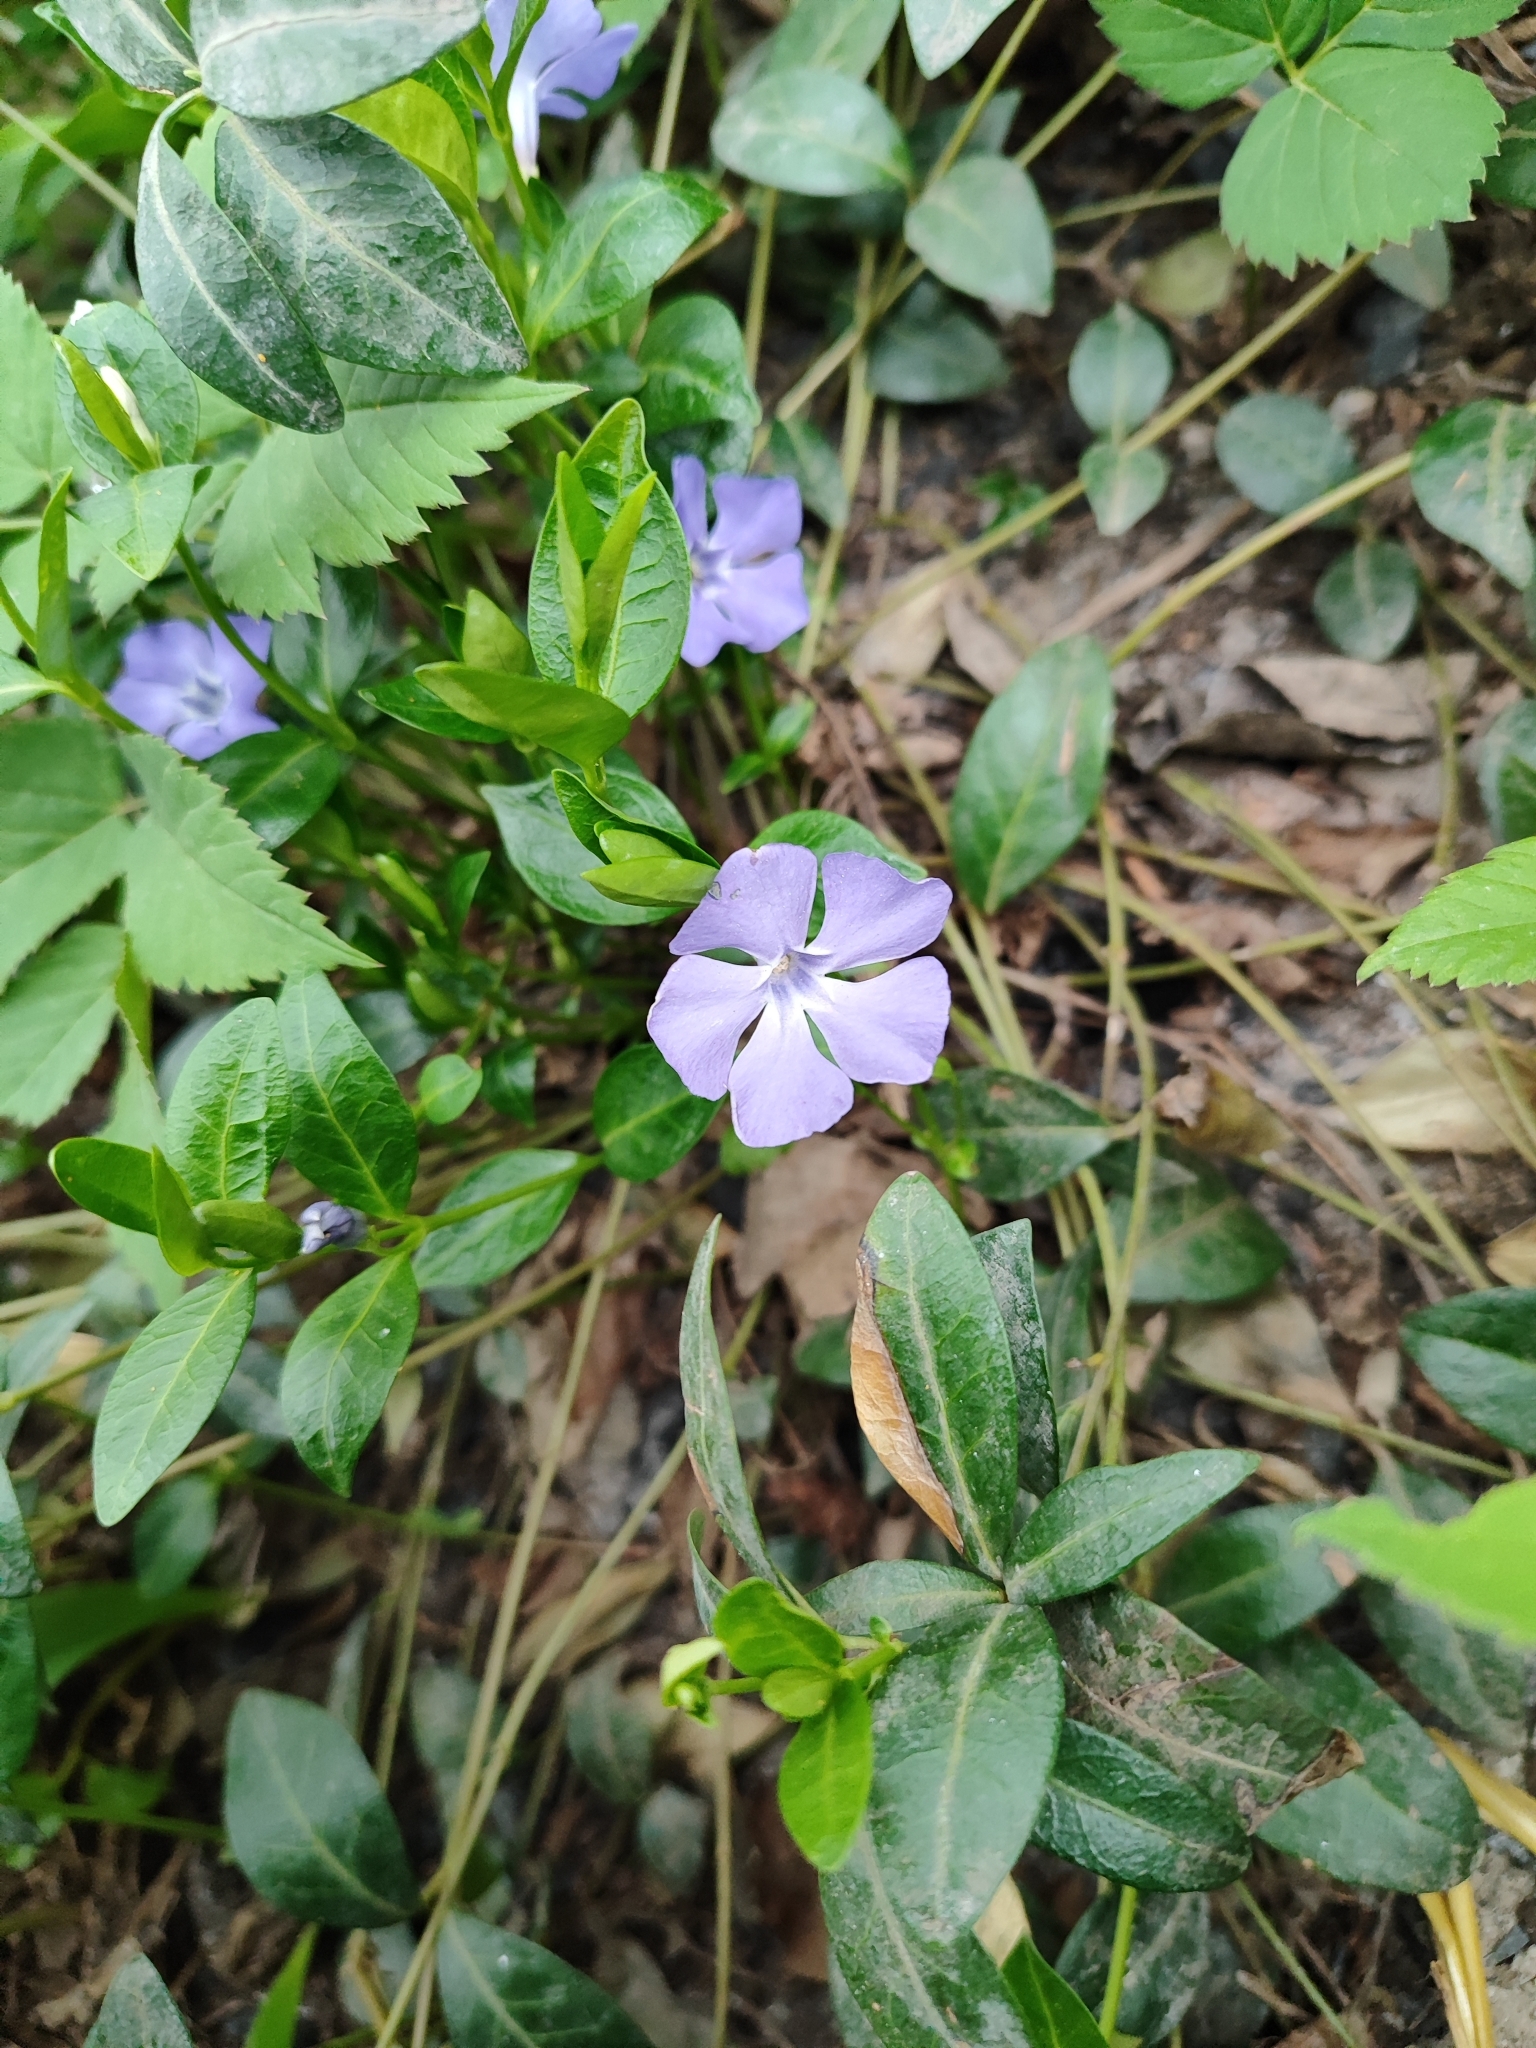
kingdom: Plantae
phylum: Tracheophyta
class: Magnoliopsida
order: Gentianales
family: Apocynaceae
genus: Vinca
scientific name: Vinca minor
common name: Lesser periwinkle
